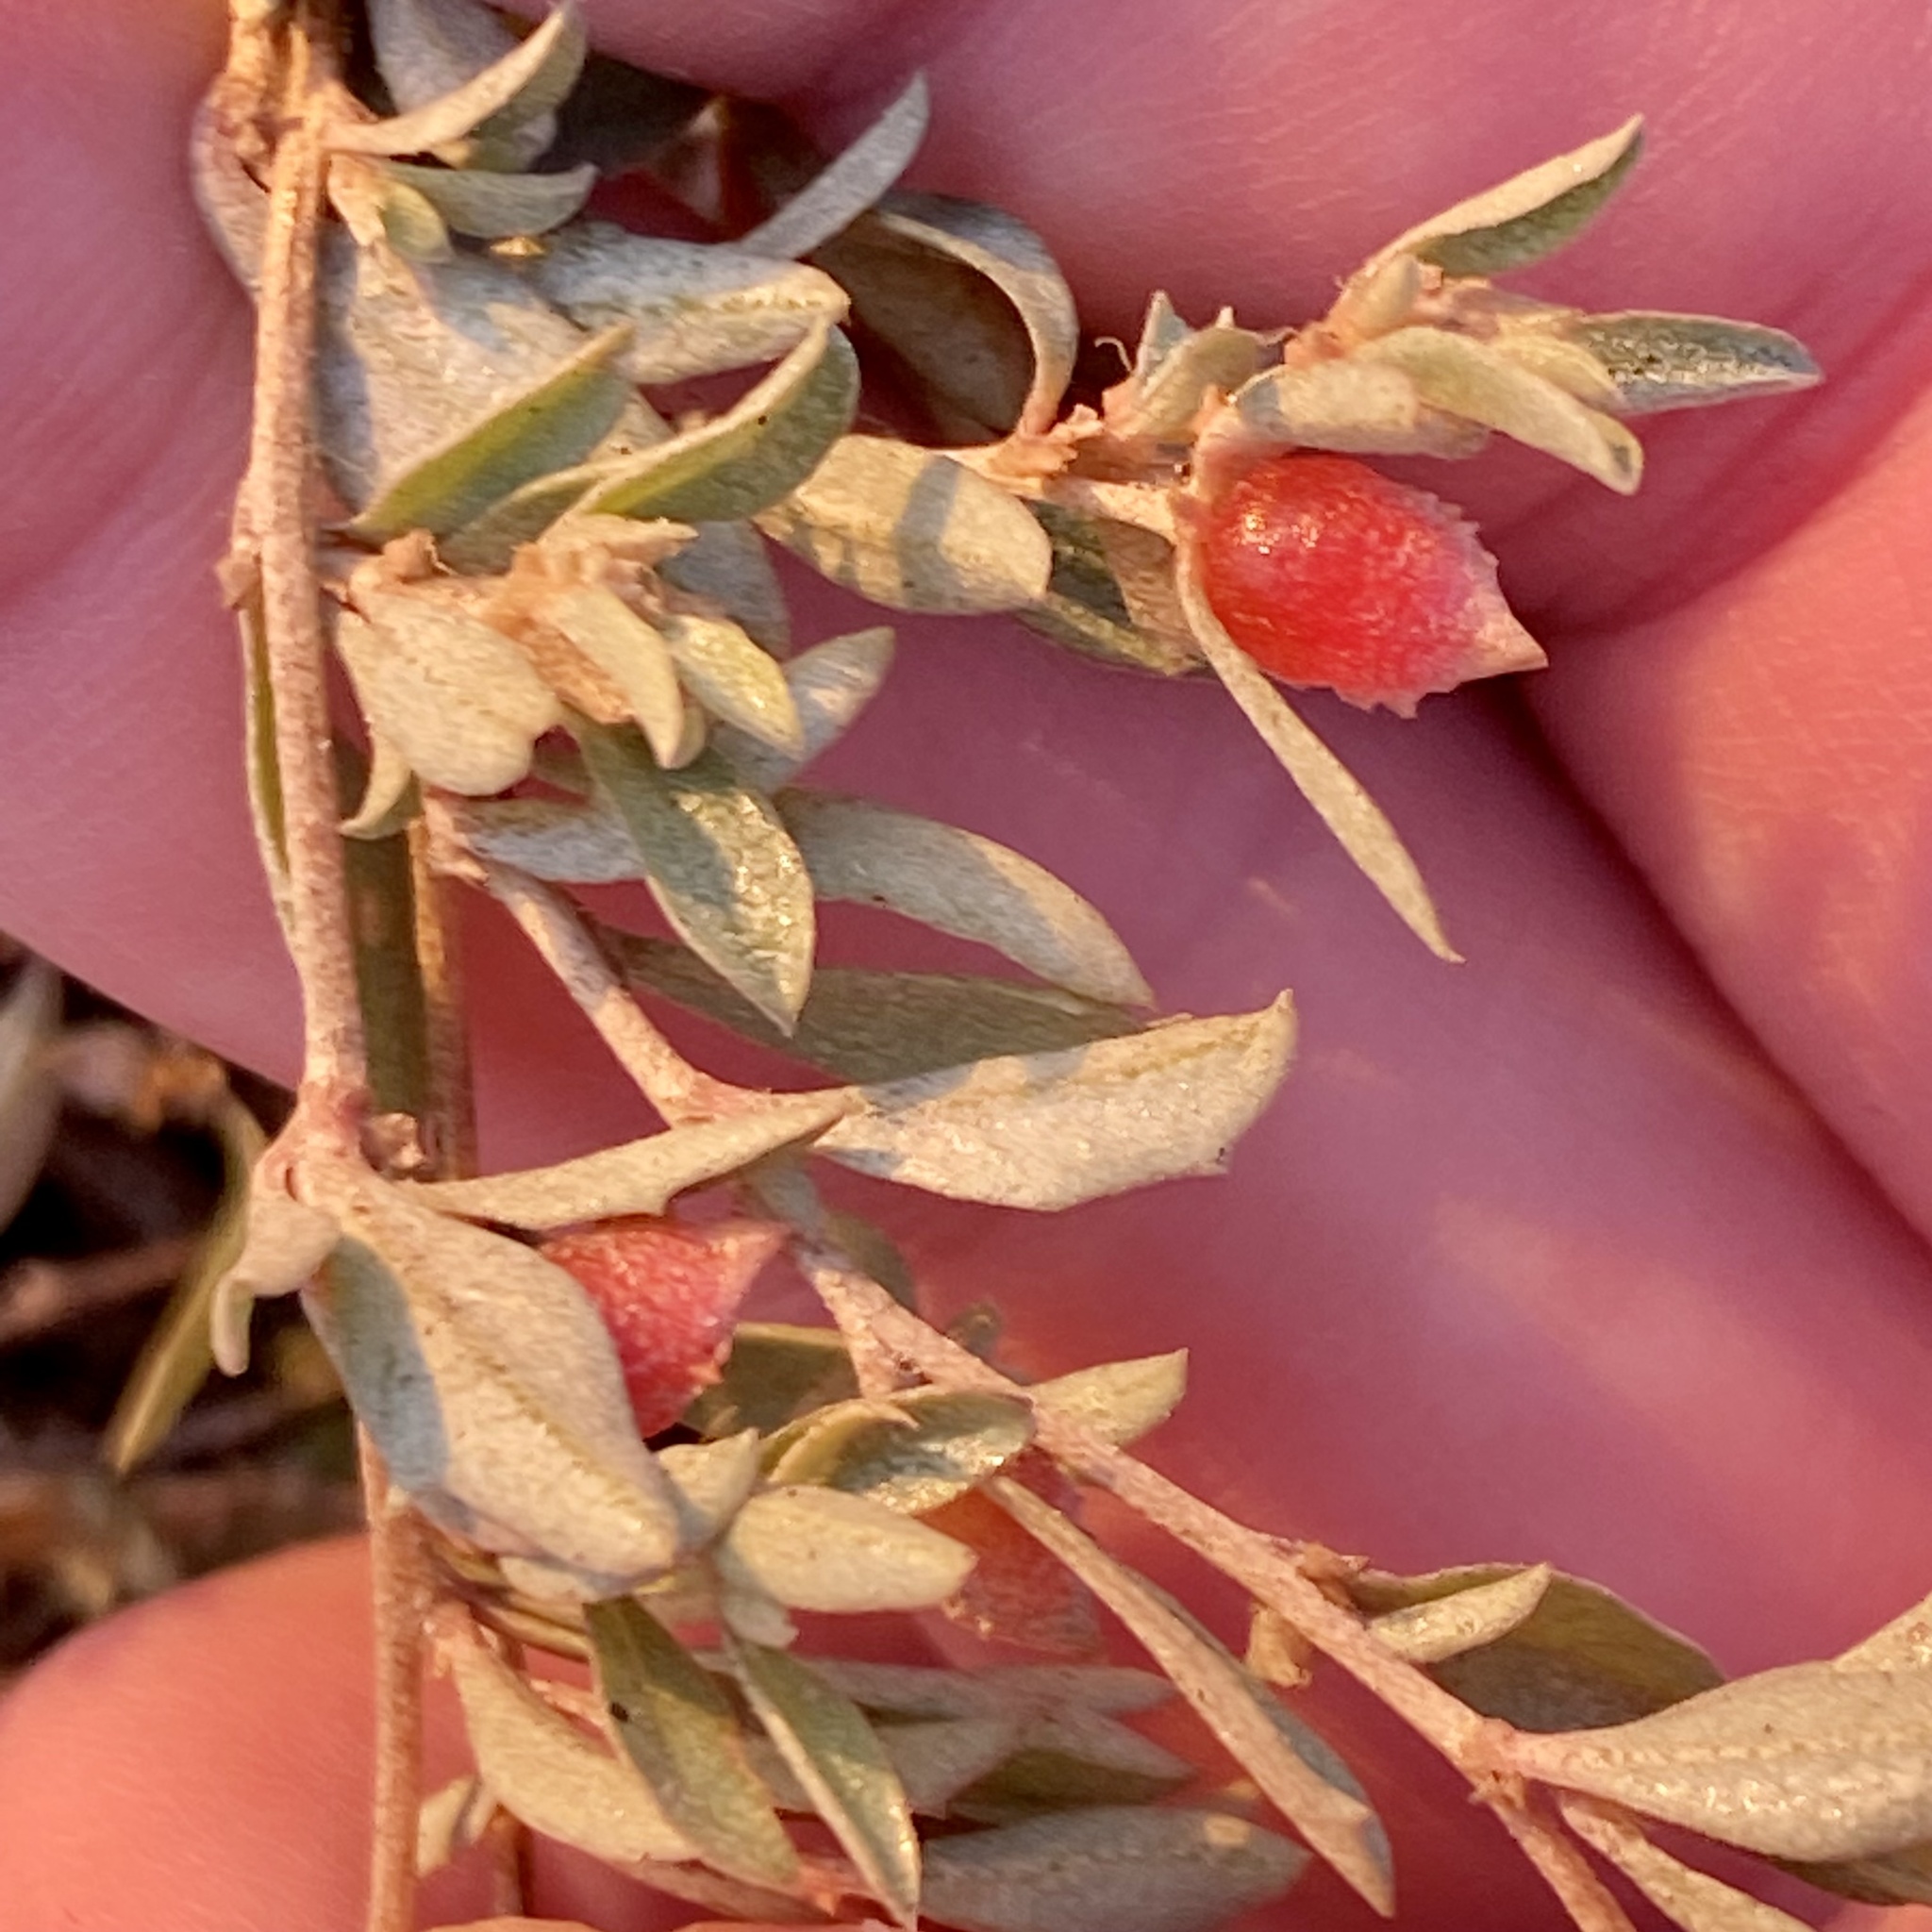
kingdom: Plantae
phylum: Tracheophyta
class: Magnoliopsida
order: Caryophyllales
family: Amaranthaceae
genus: Atriplex
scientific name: Atriplex semibaccata
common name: Australian saltbush
